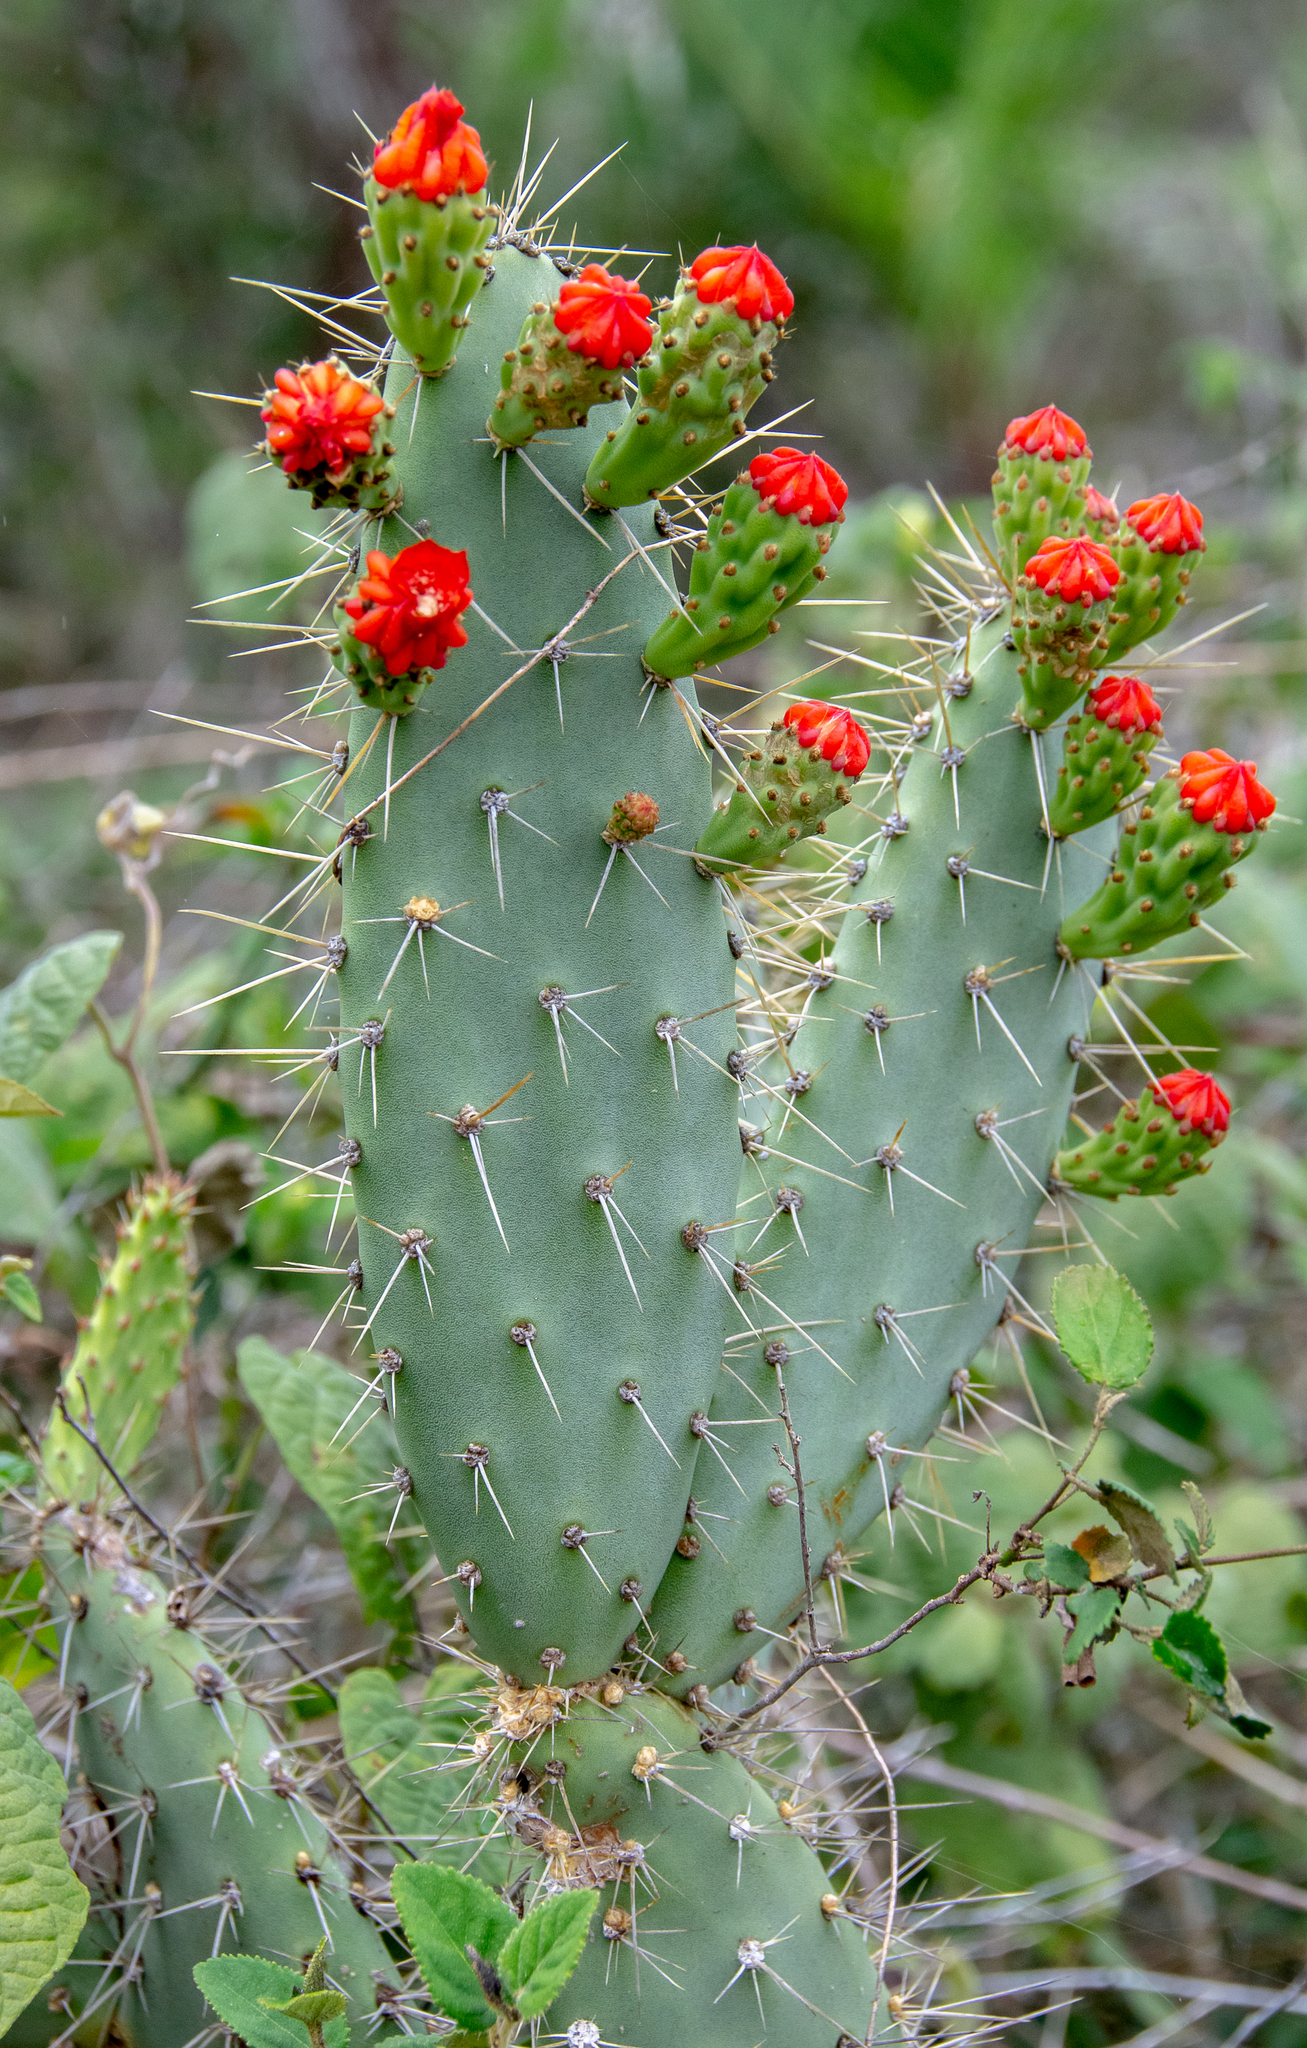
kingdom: Plantae
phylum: Tracheophyta
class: Magnoliopsida
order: Caryophyllales
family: Cactaceae
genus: Tacinga
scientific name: Tacinga palmadora
